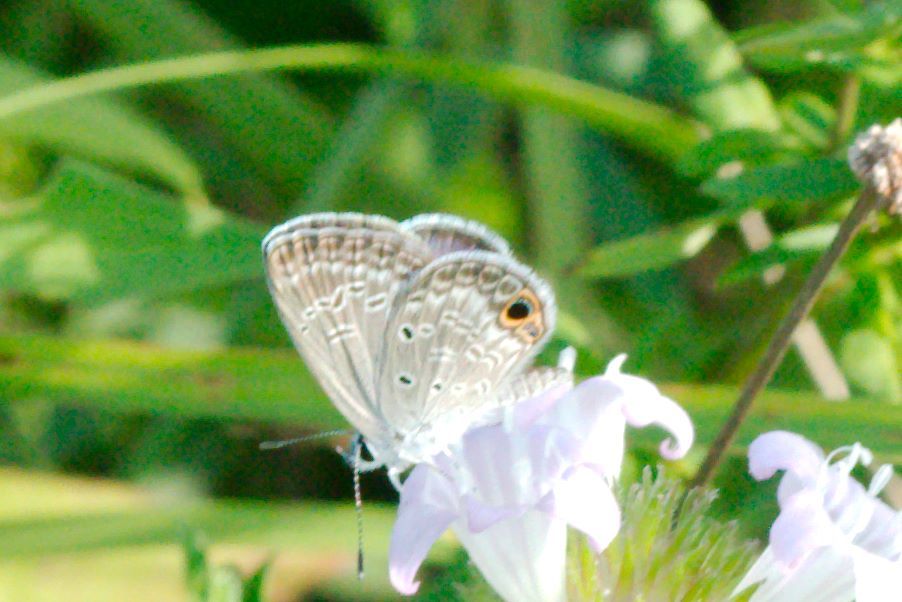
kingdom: Animalia
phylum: Arthropoda
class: Insecta
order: Lepidoptera
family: Lycaenidae
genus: Hemiargus
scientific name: Hemiargus ceraunus
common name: Ceraunus blue
